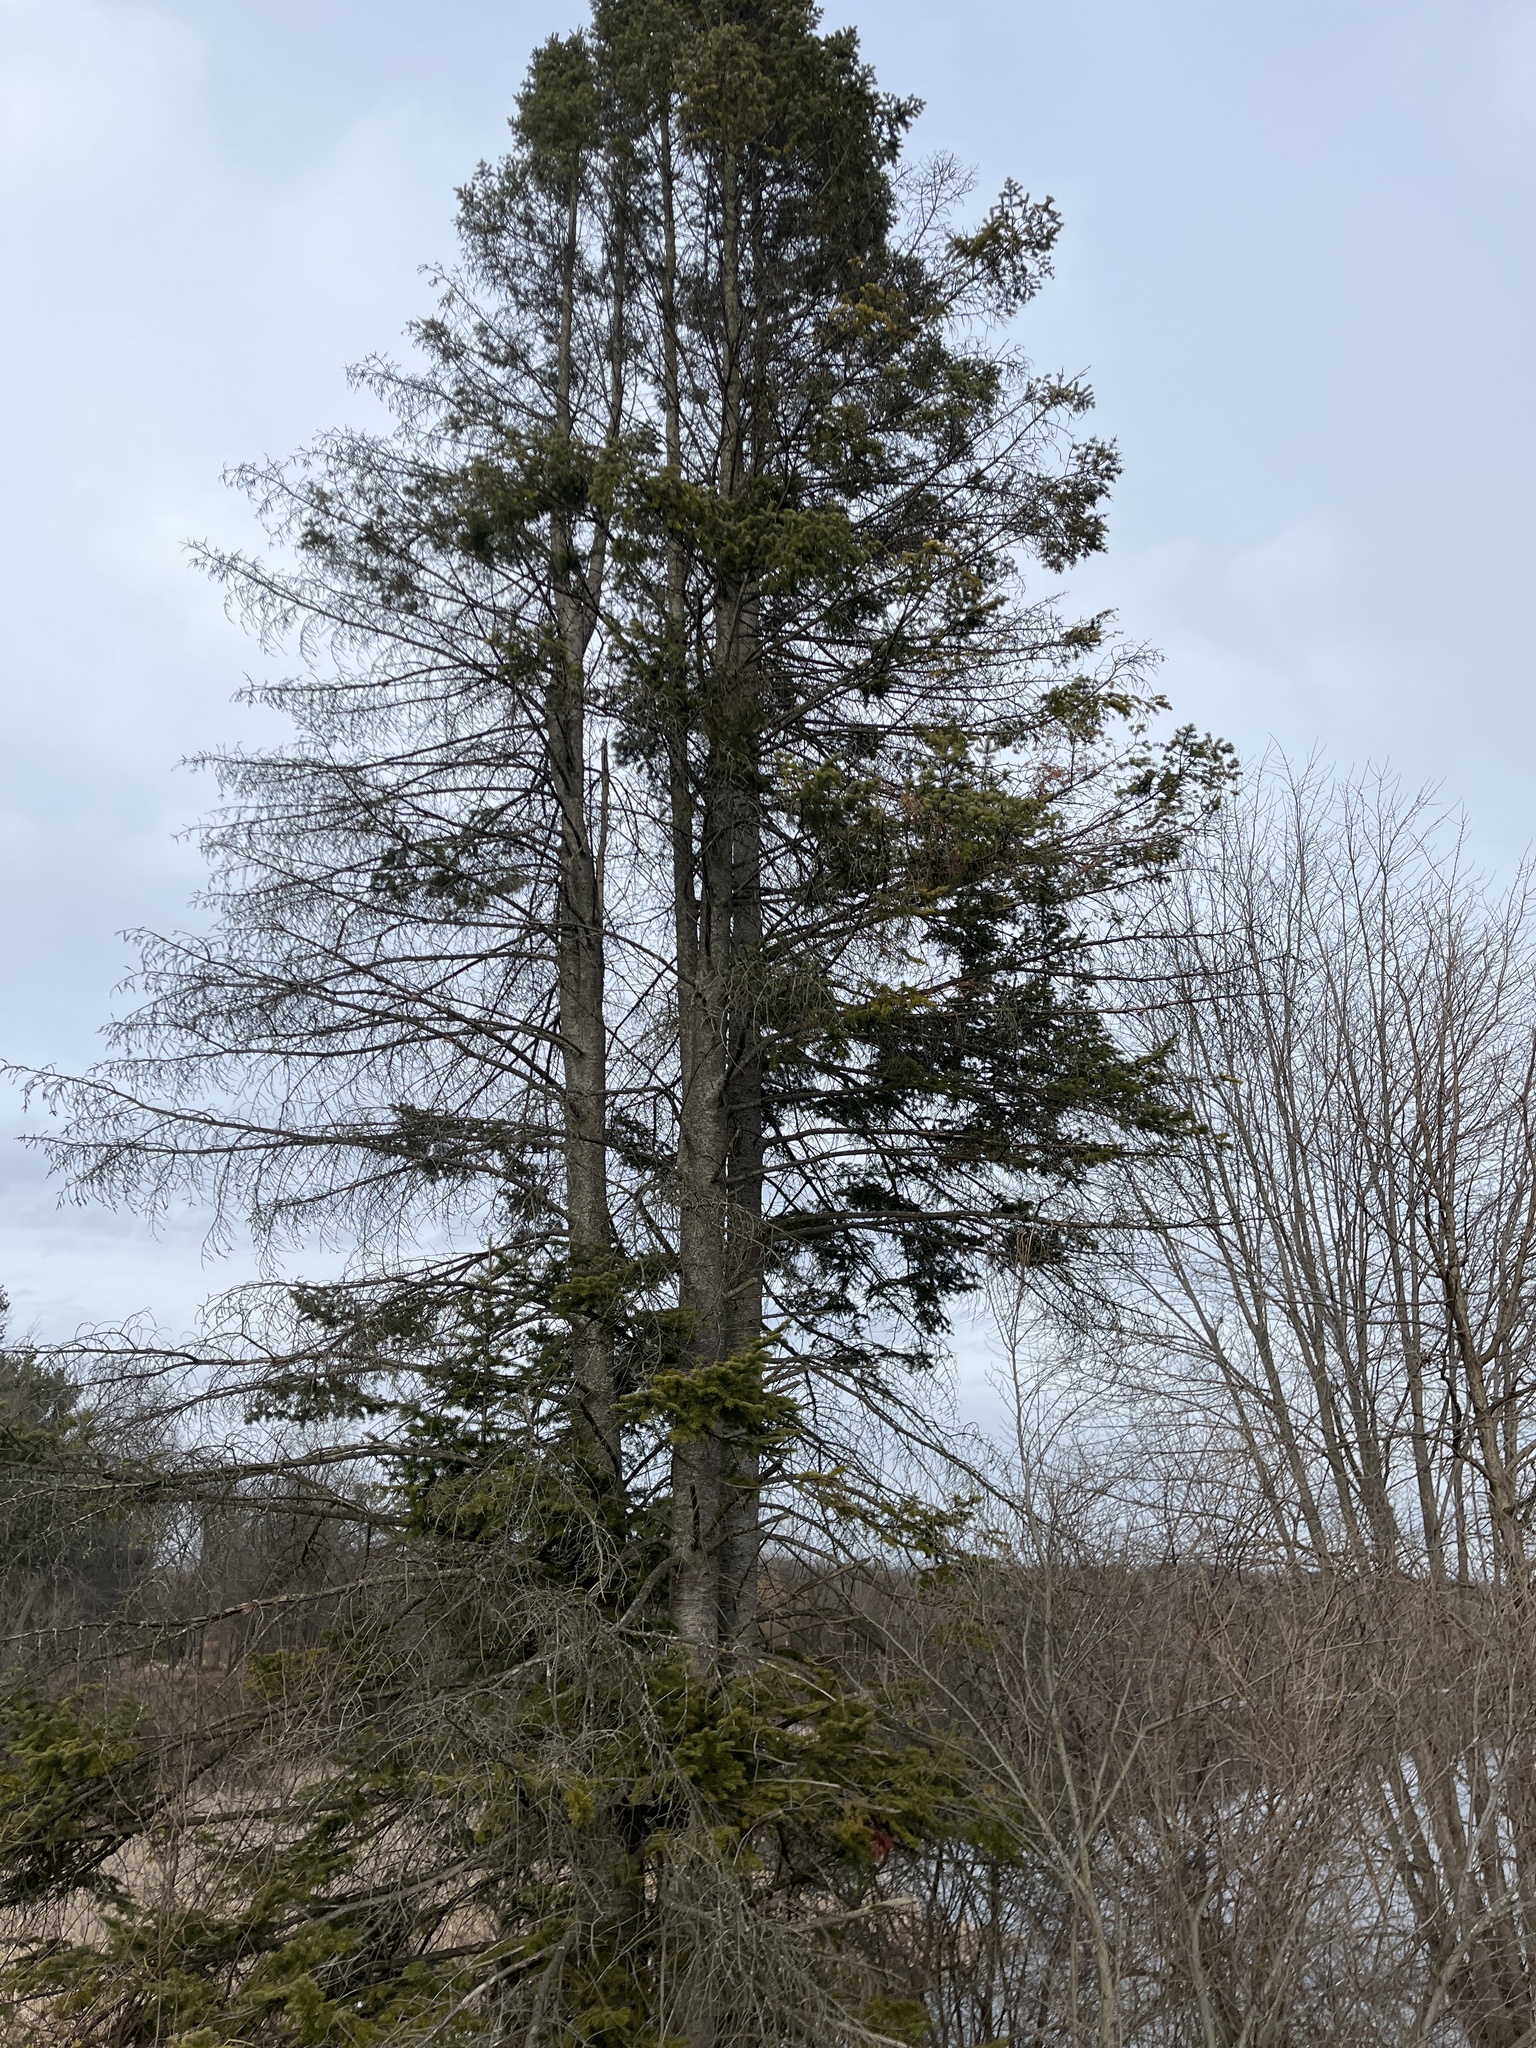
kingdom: Plantae
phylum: Tracheophyta
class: Pinopsida
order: Pinales
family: Pinaceae
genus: Tsuga
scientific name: Tsuga canadensis
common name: Eastern hemlock
